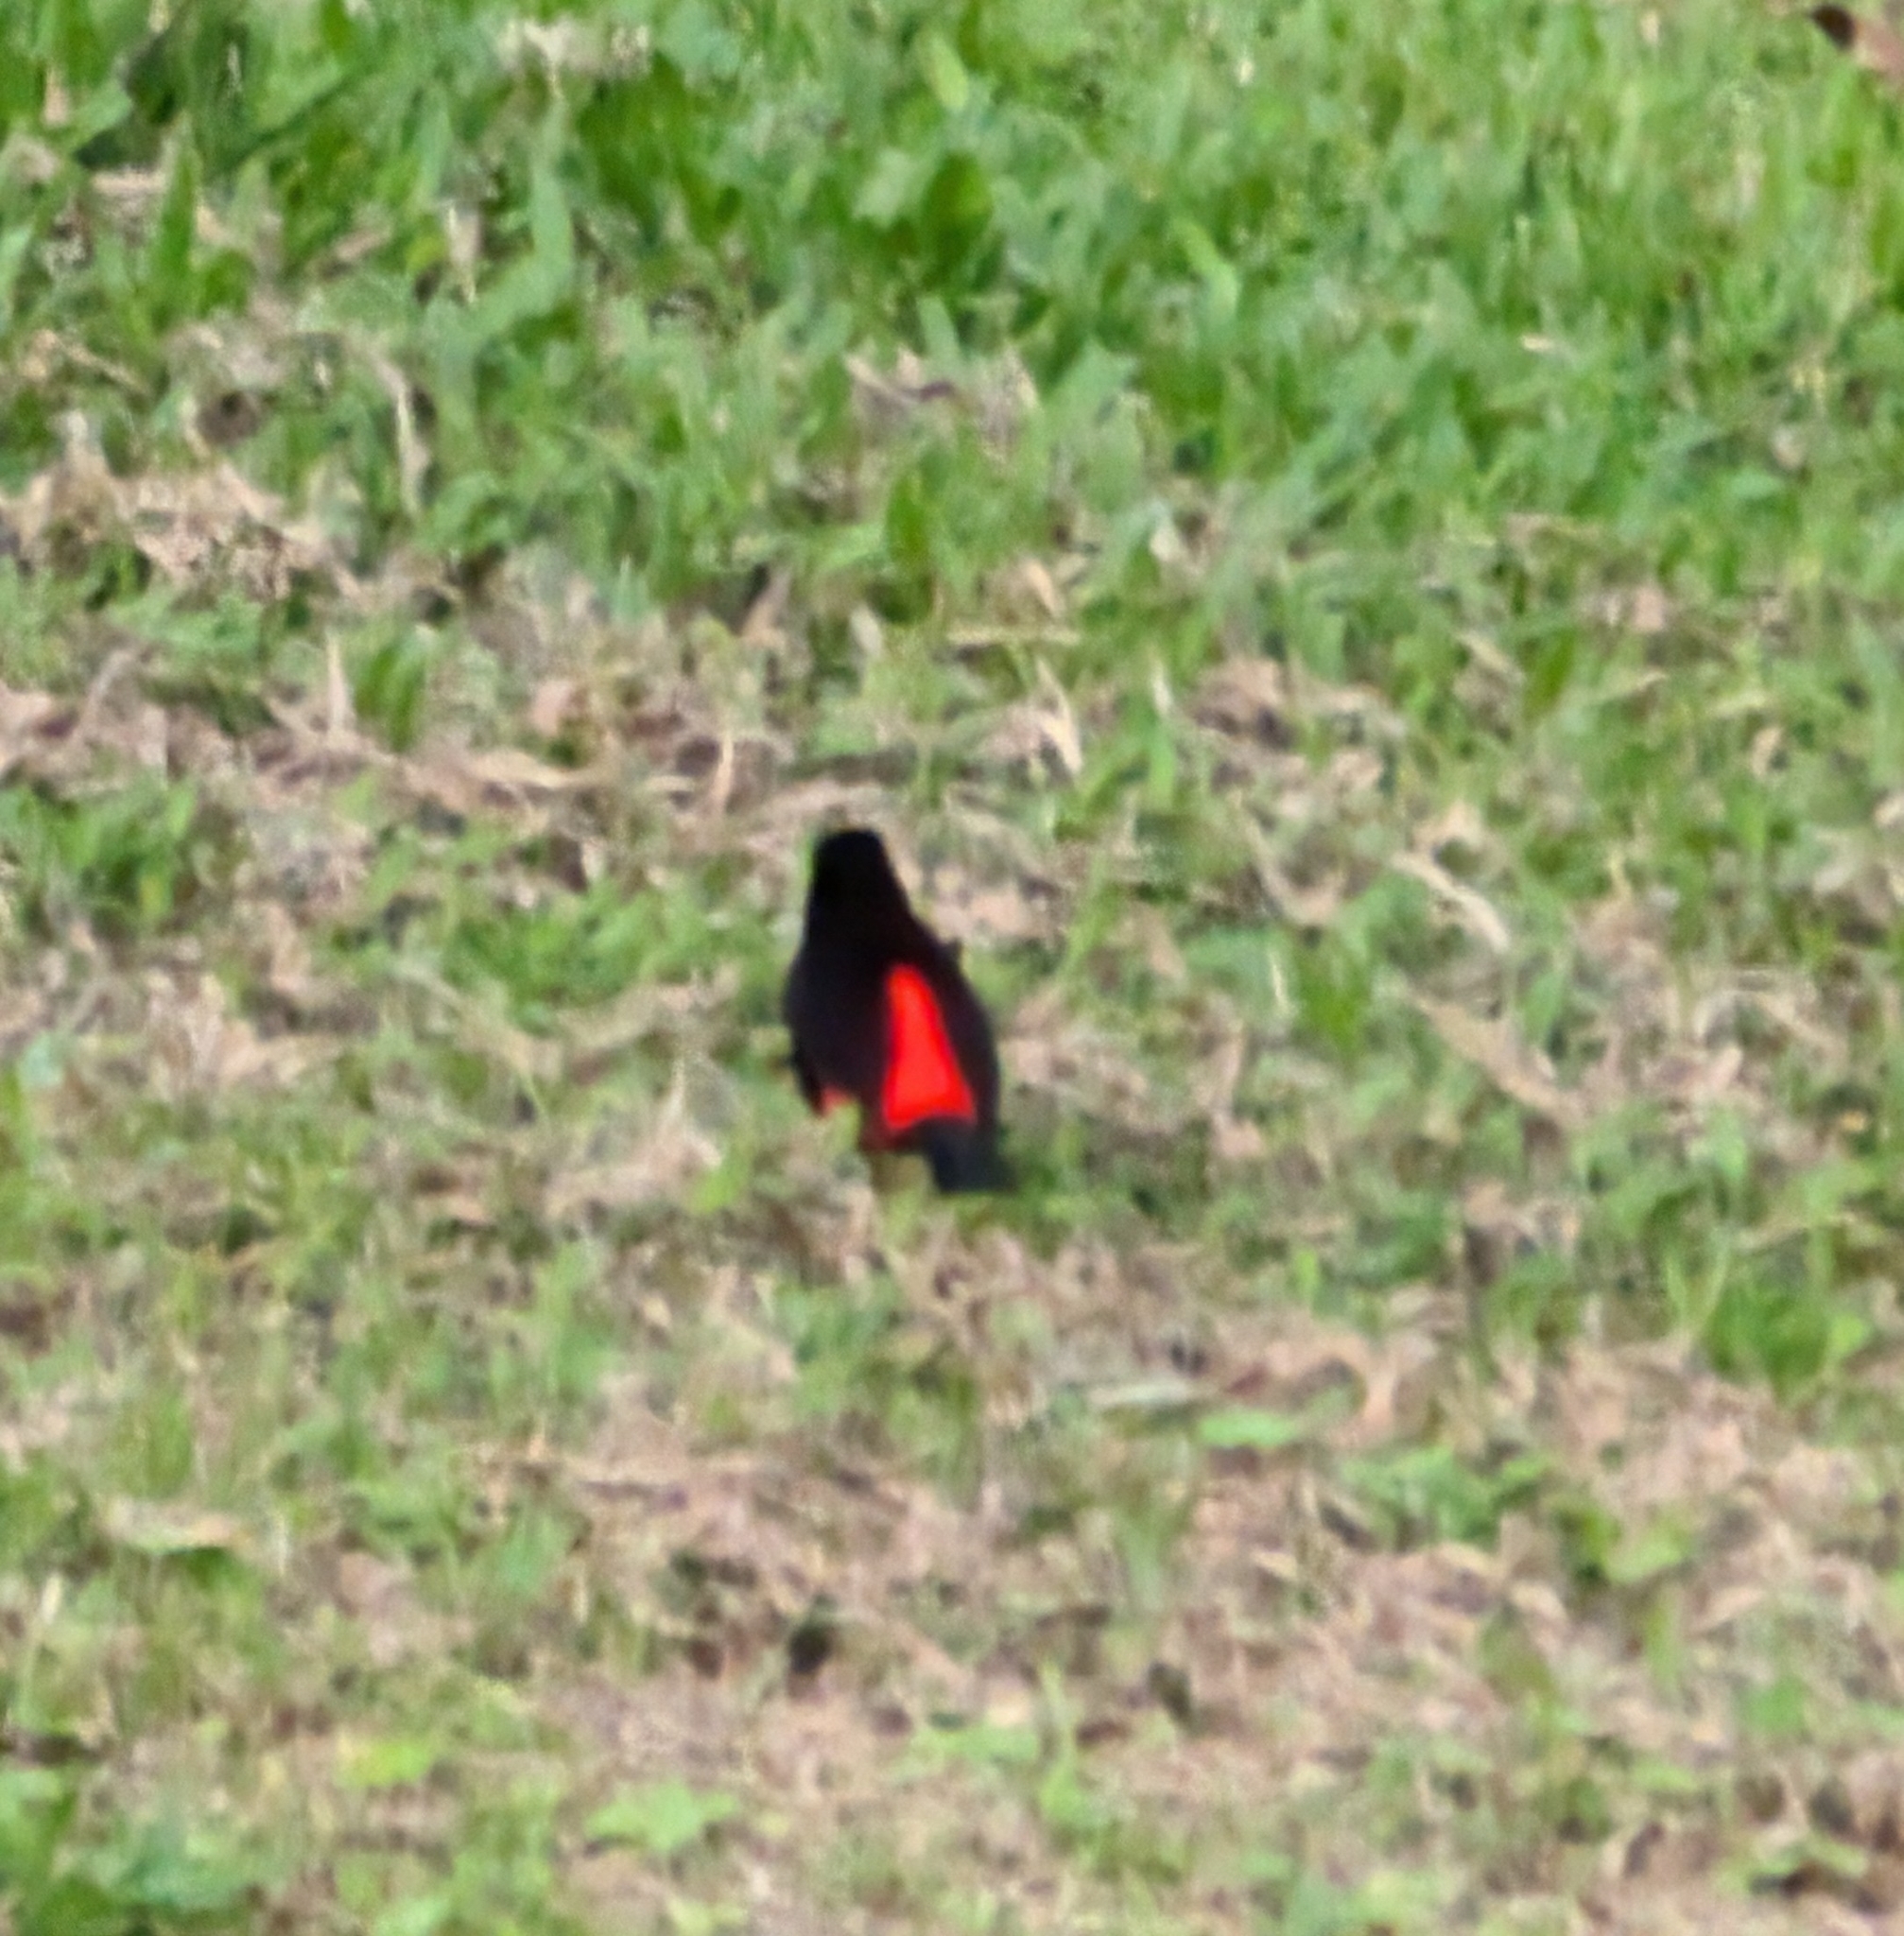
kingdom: Animalia
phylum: Chordata
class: Aves
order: Passeriformes
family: Thraupidae
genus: Ramphocelus
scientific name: Ramphocelus passerinii
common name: Passerini's tanager
